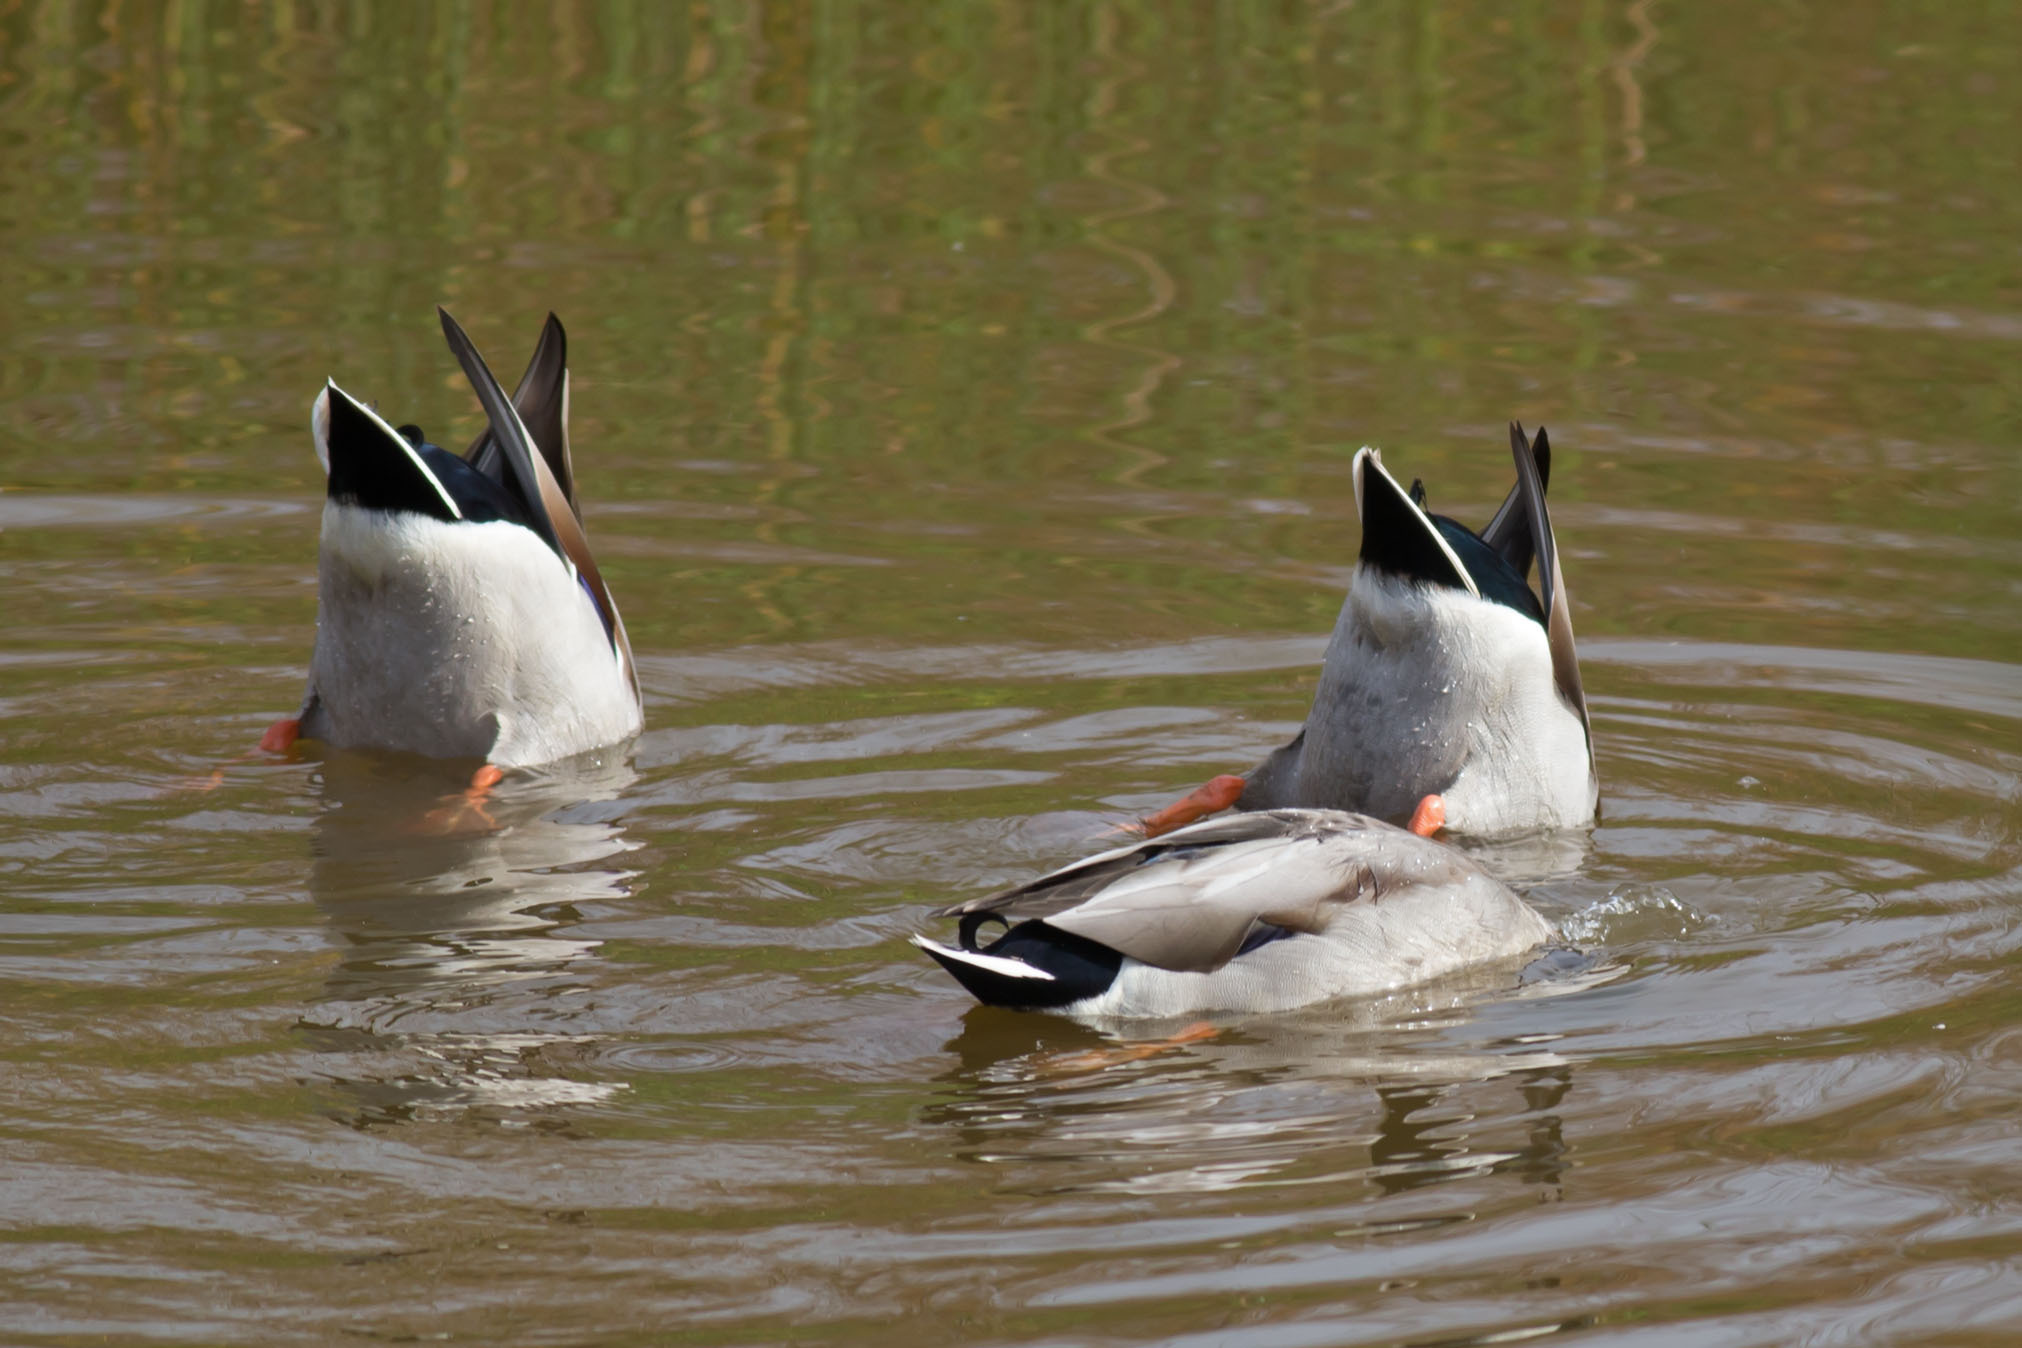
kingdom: Animalia
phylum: Chordata
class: Aves
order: Anseriformes
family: Anatidae
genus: Anas
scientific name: Anas platyrhynchos
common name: Mallard
